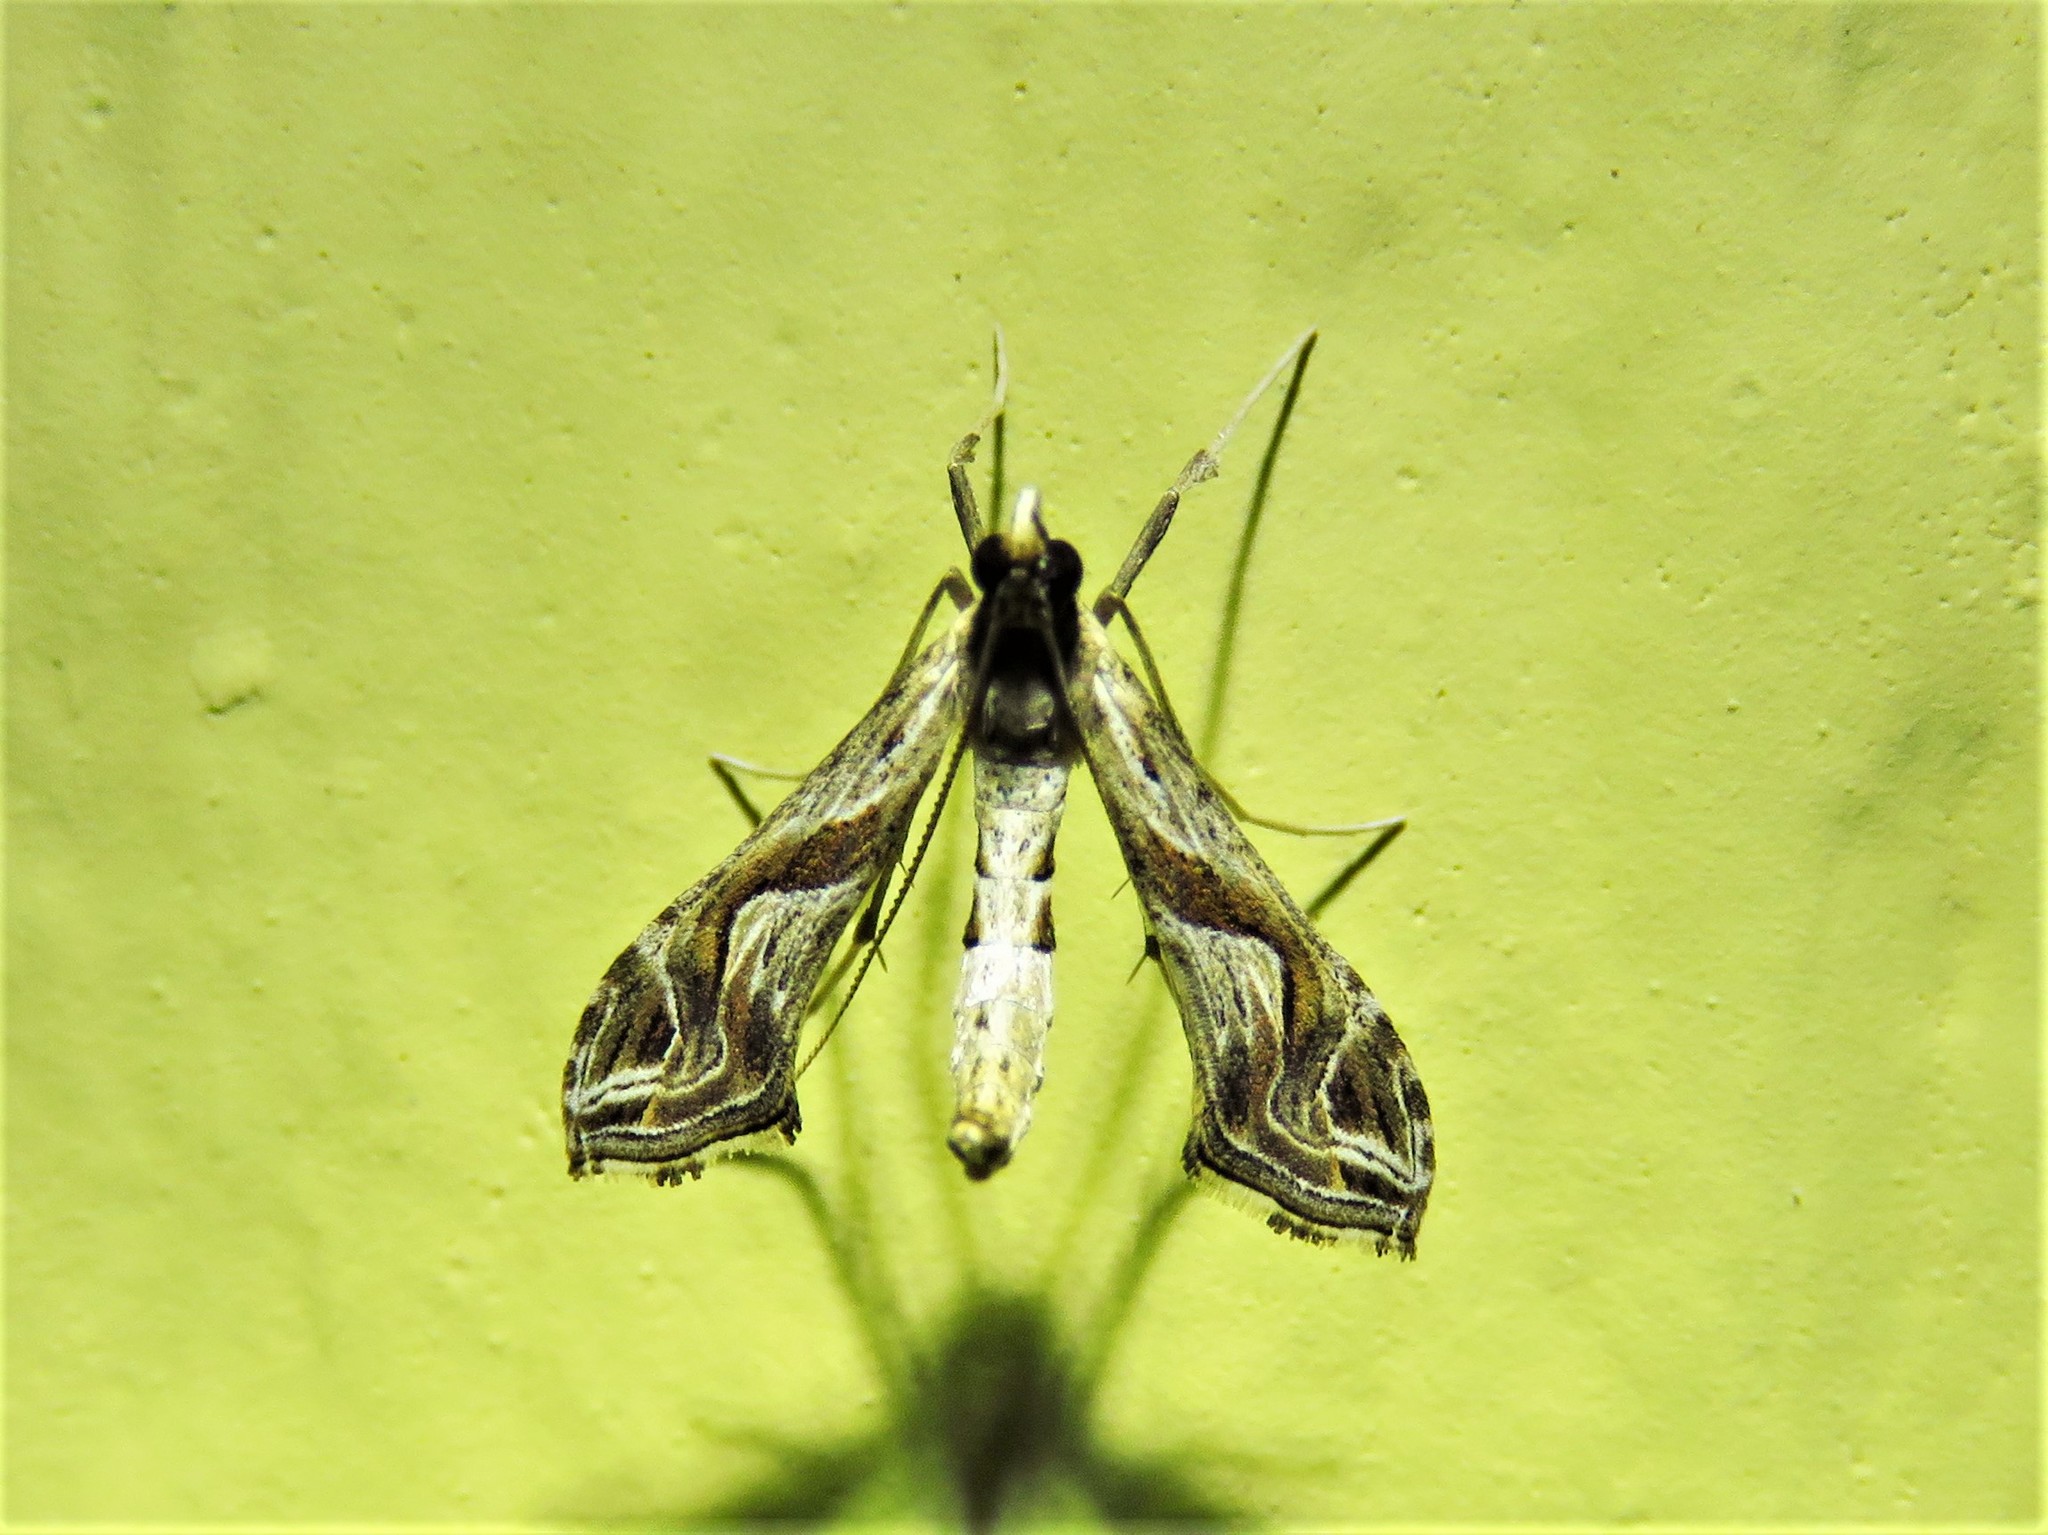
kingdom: Animalia
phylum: Arthropoda
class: Insecta
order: Lepidoptera
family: Crambidae
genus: Lineodes
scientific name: Lineodes integra
